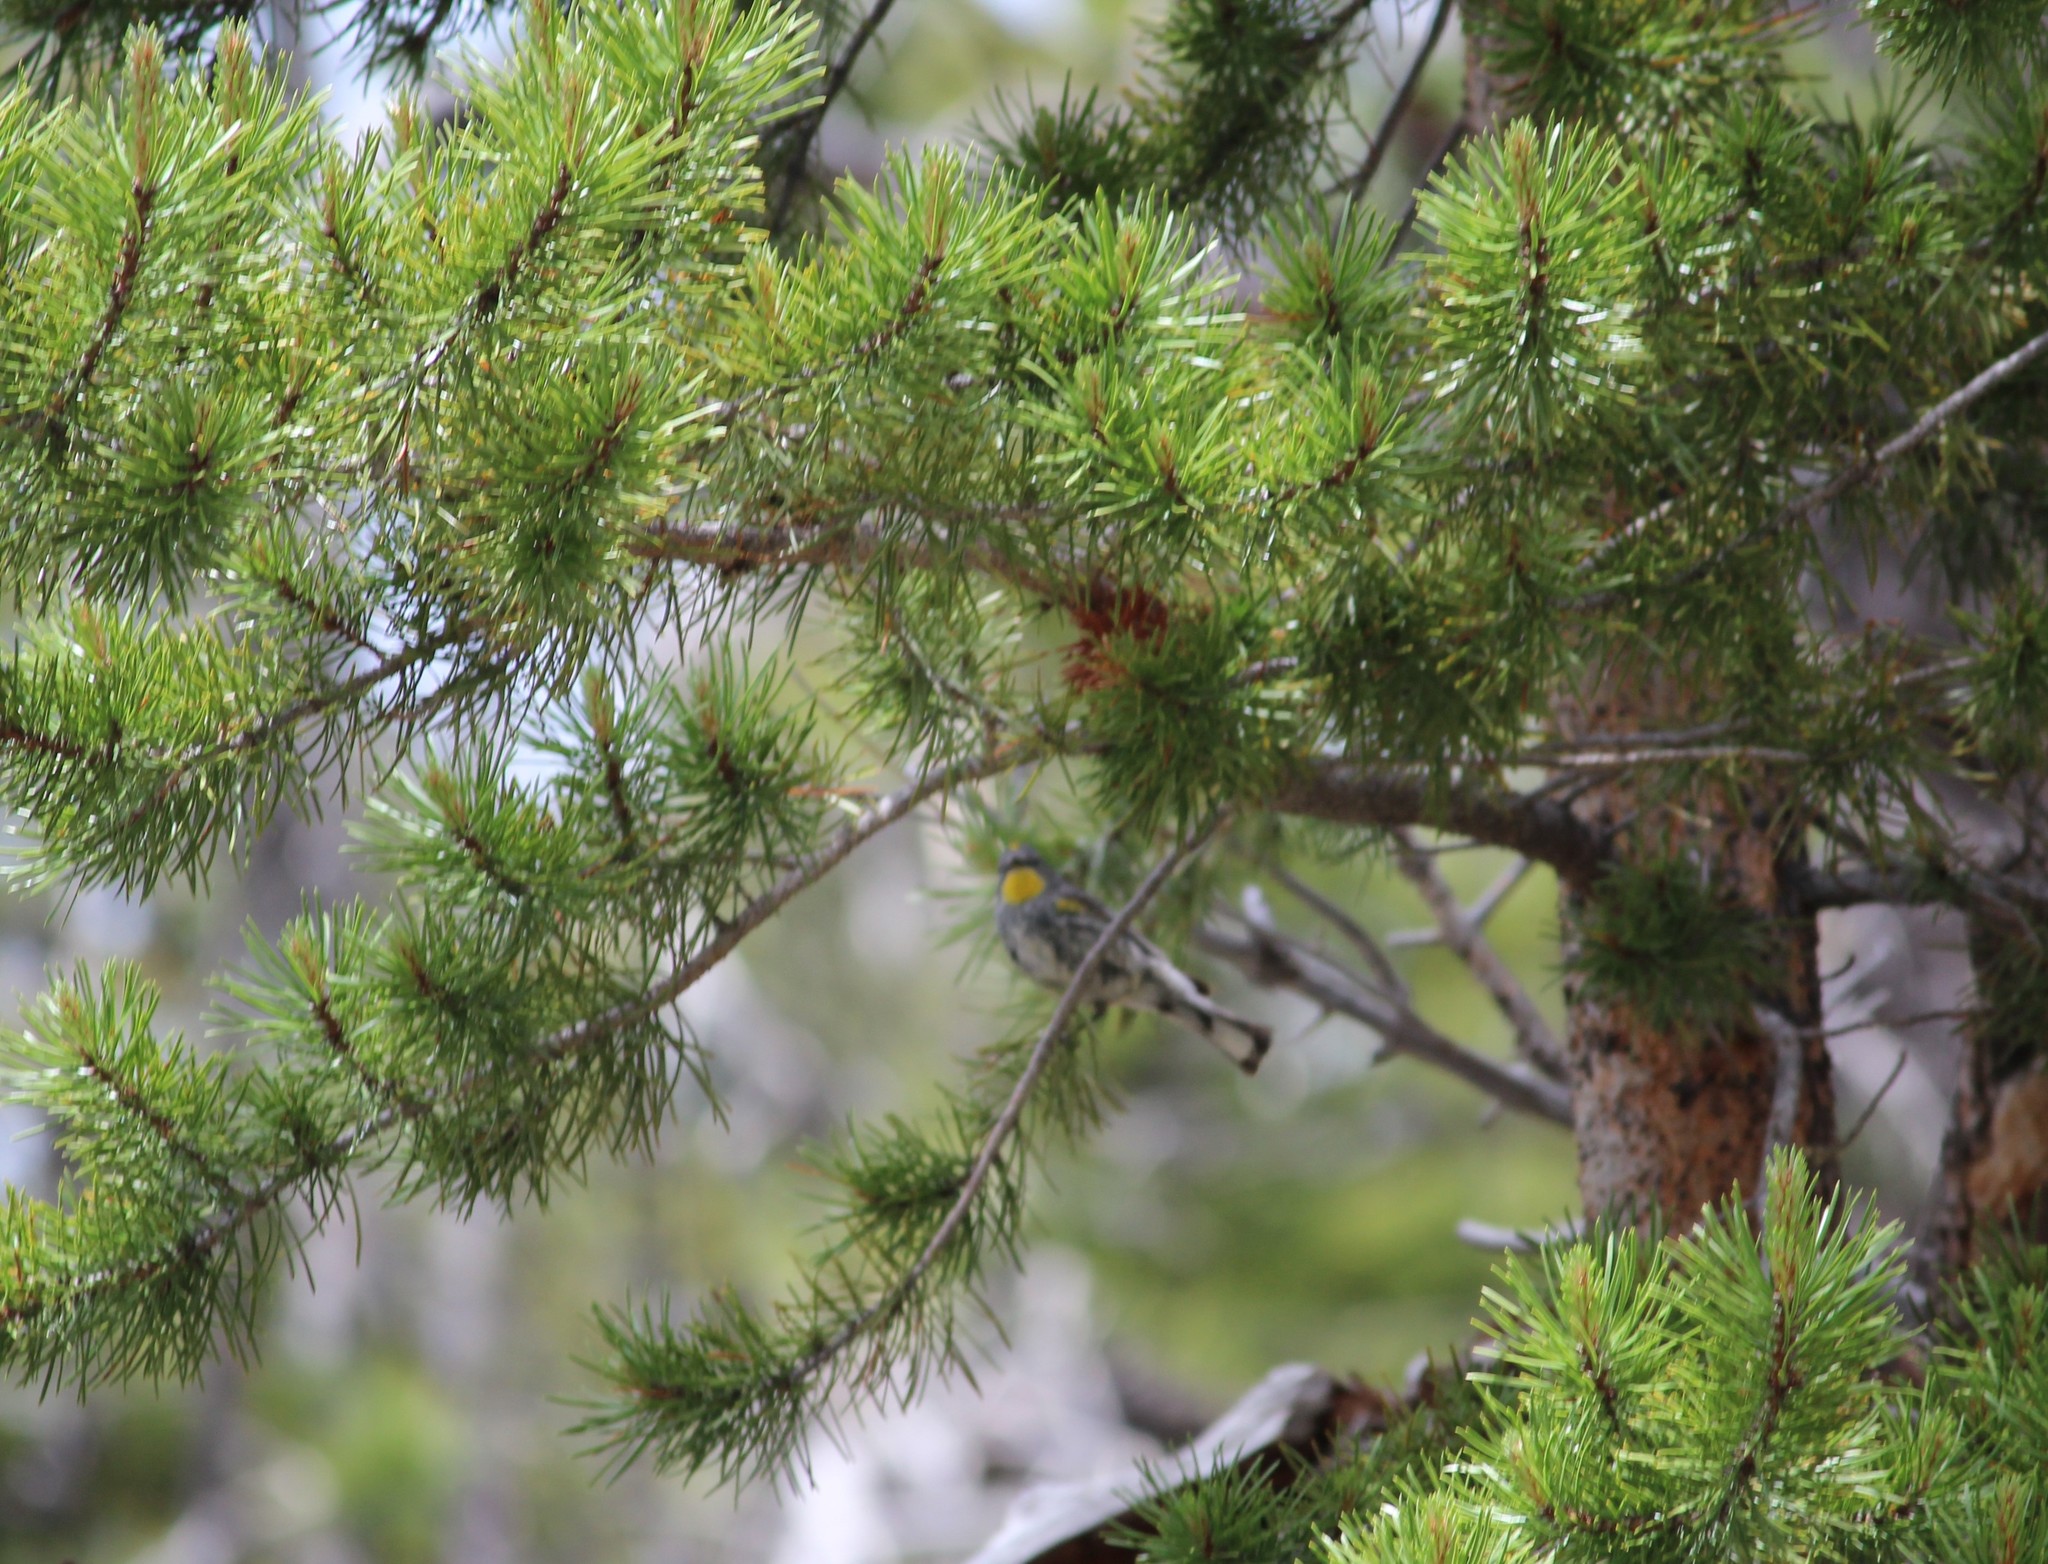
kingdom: Animalia
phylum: Chordata
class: Aves
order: Passeriformes
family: Parulidae
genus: Setophaga
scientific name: Setophaga auduboni
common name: Audubon's warbler
